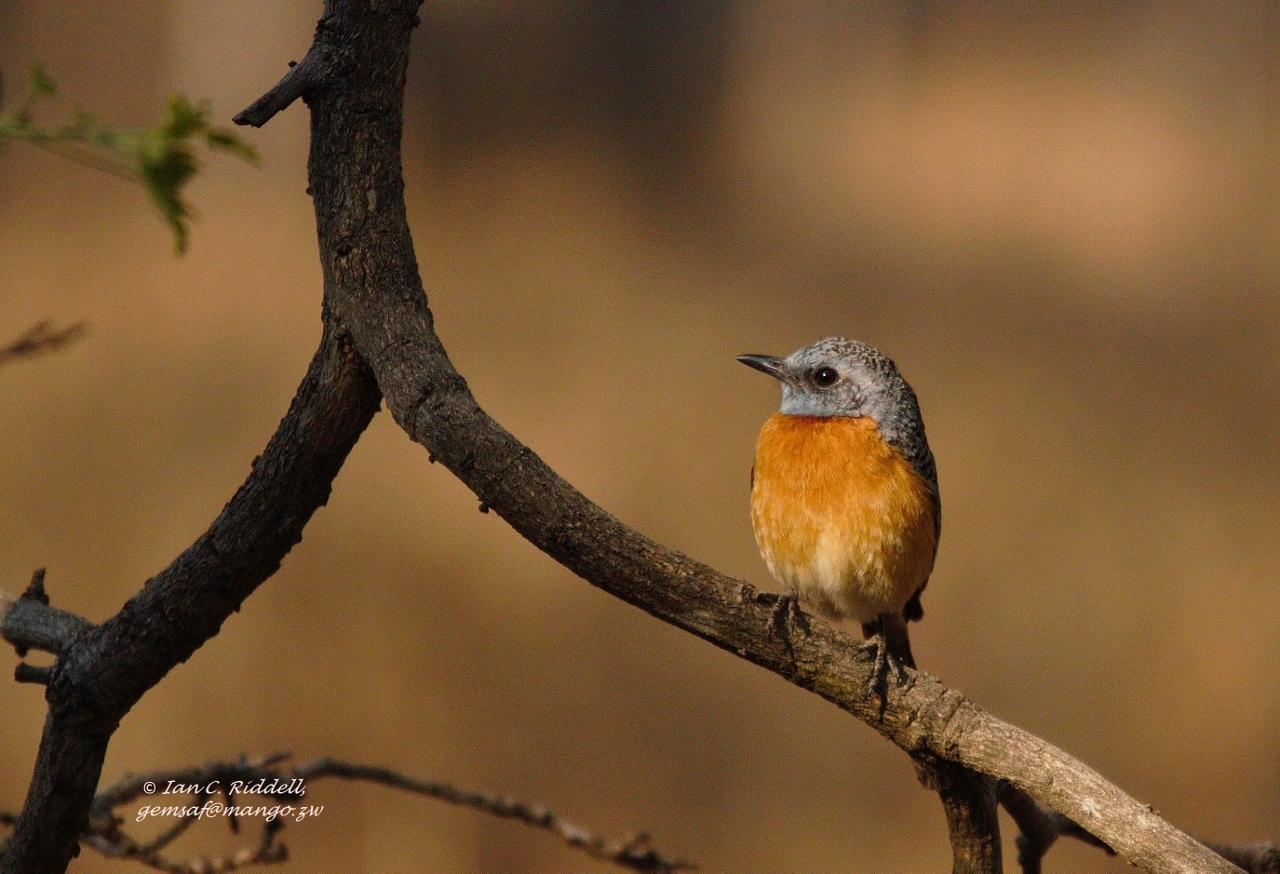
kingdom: Animalia
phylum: Chordata
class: Aves
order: Passeriformes
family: Muscicapidae
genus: Monticola
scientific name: Monticola angolensis
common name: Miombo rock thrush
